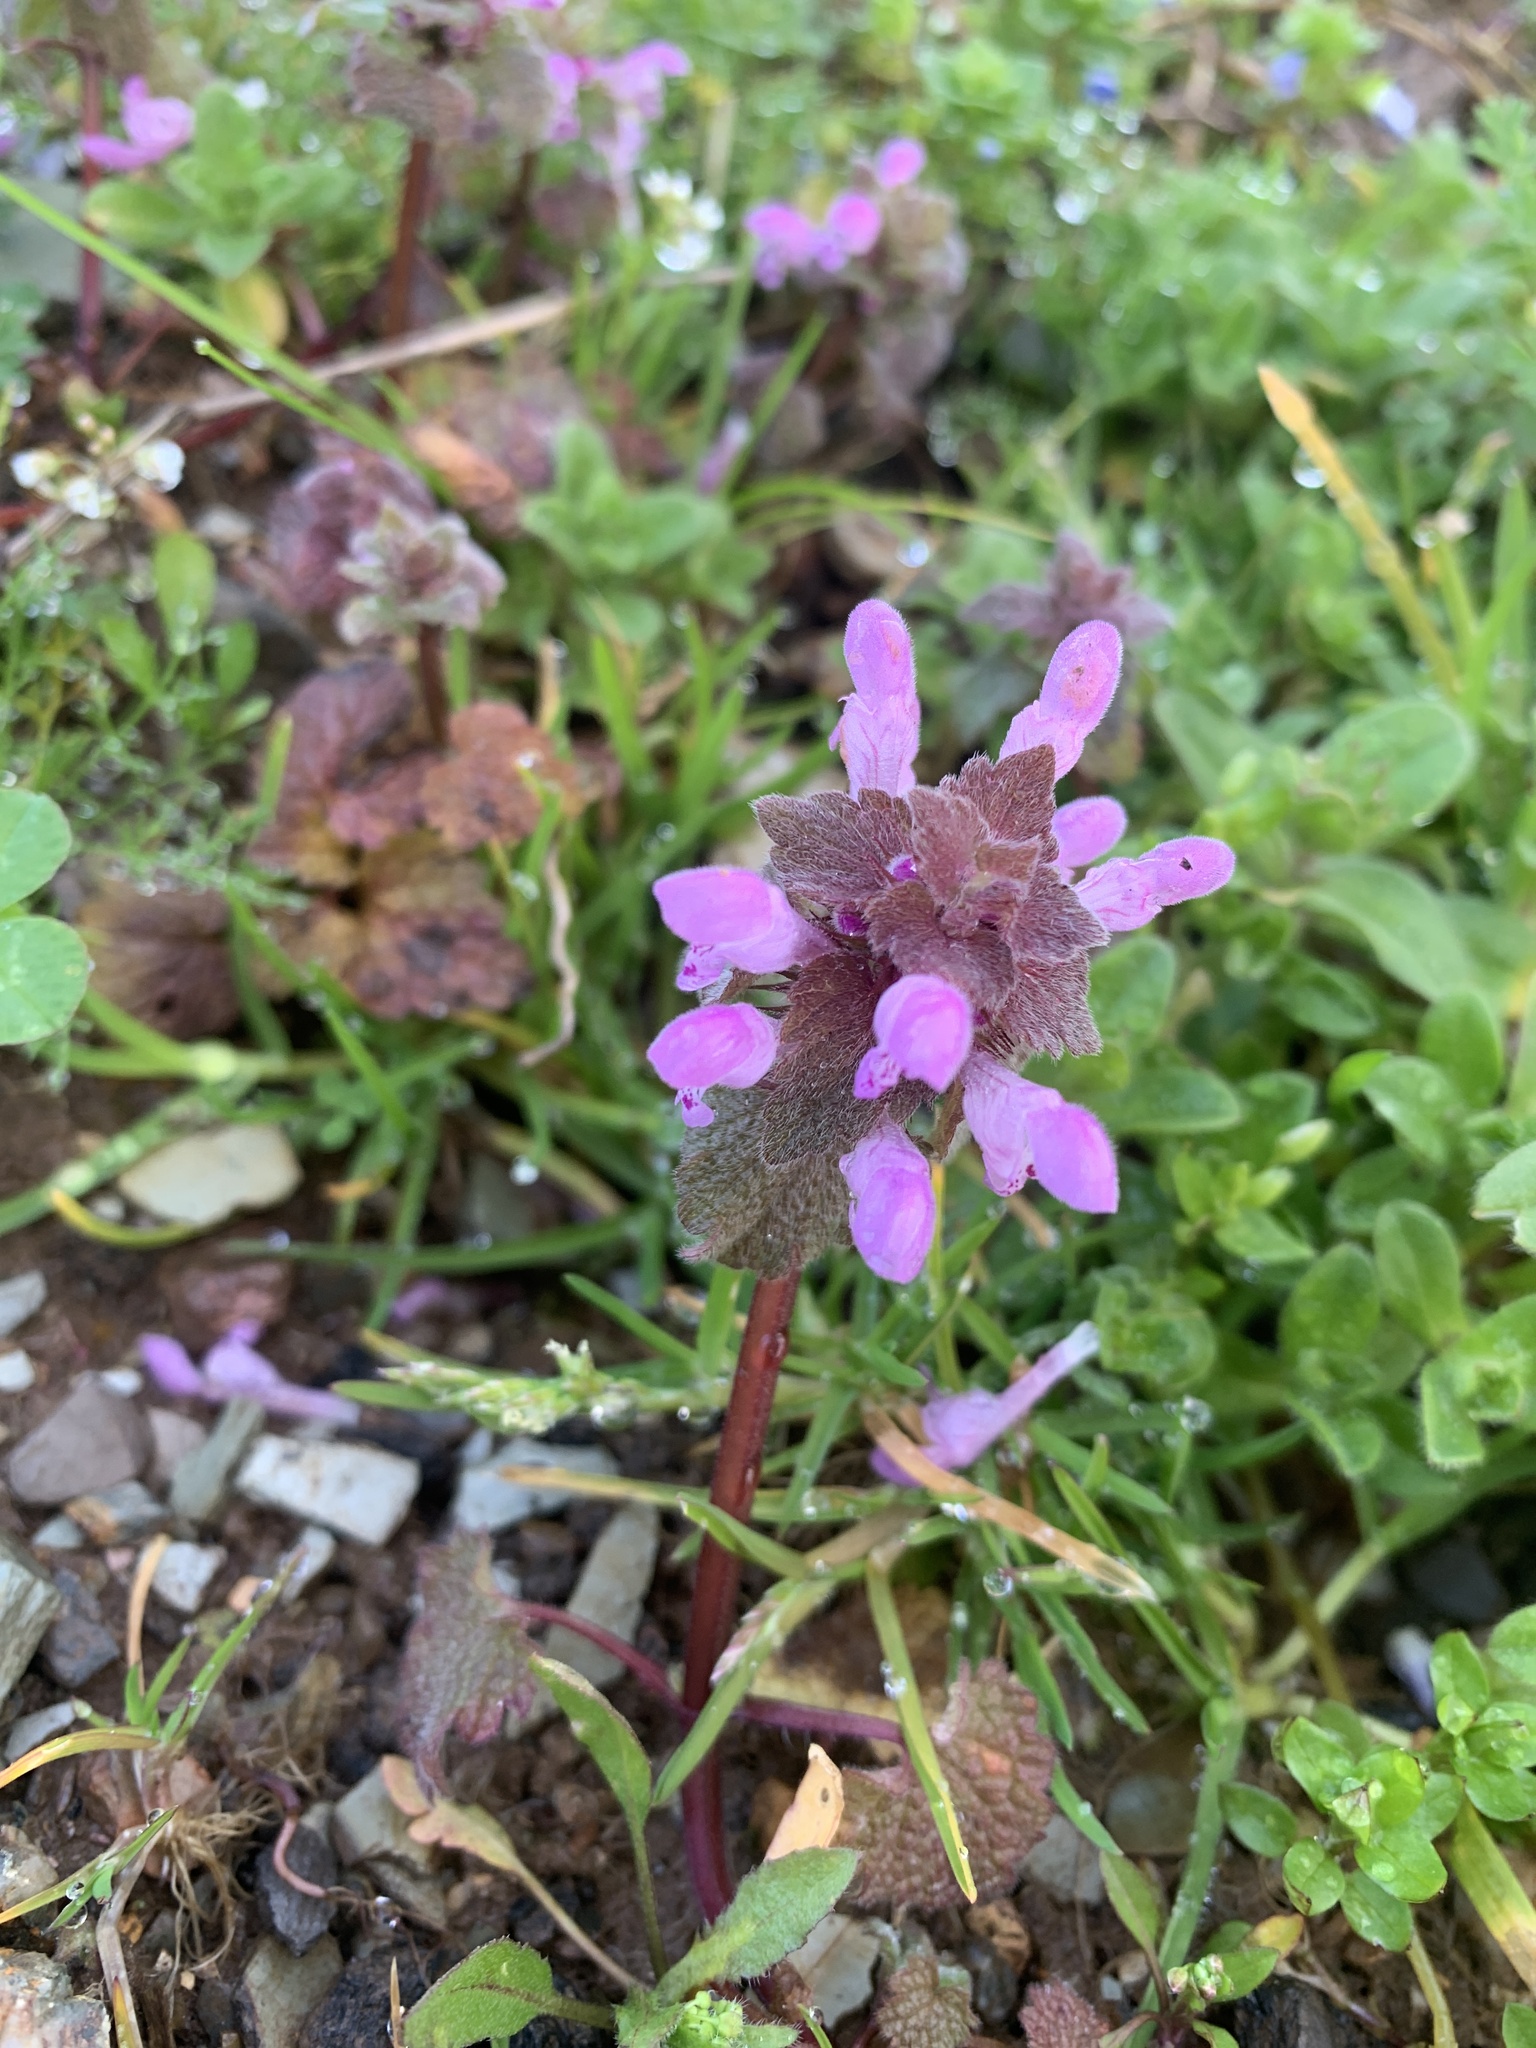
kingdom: Plantae
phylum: Tracheophyta
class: Magnoliopsida
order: Lamiales
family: Lamiaceae
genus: Lamium
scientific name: Lamium purpureum
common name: Red dead-nettle
